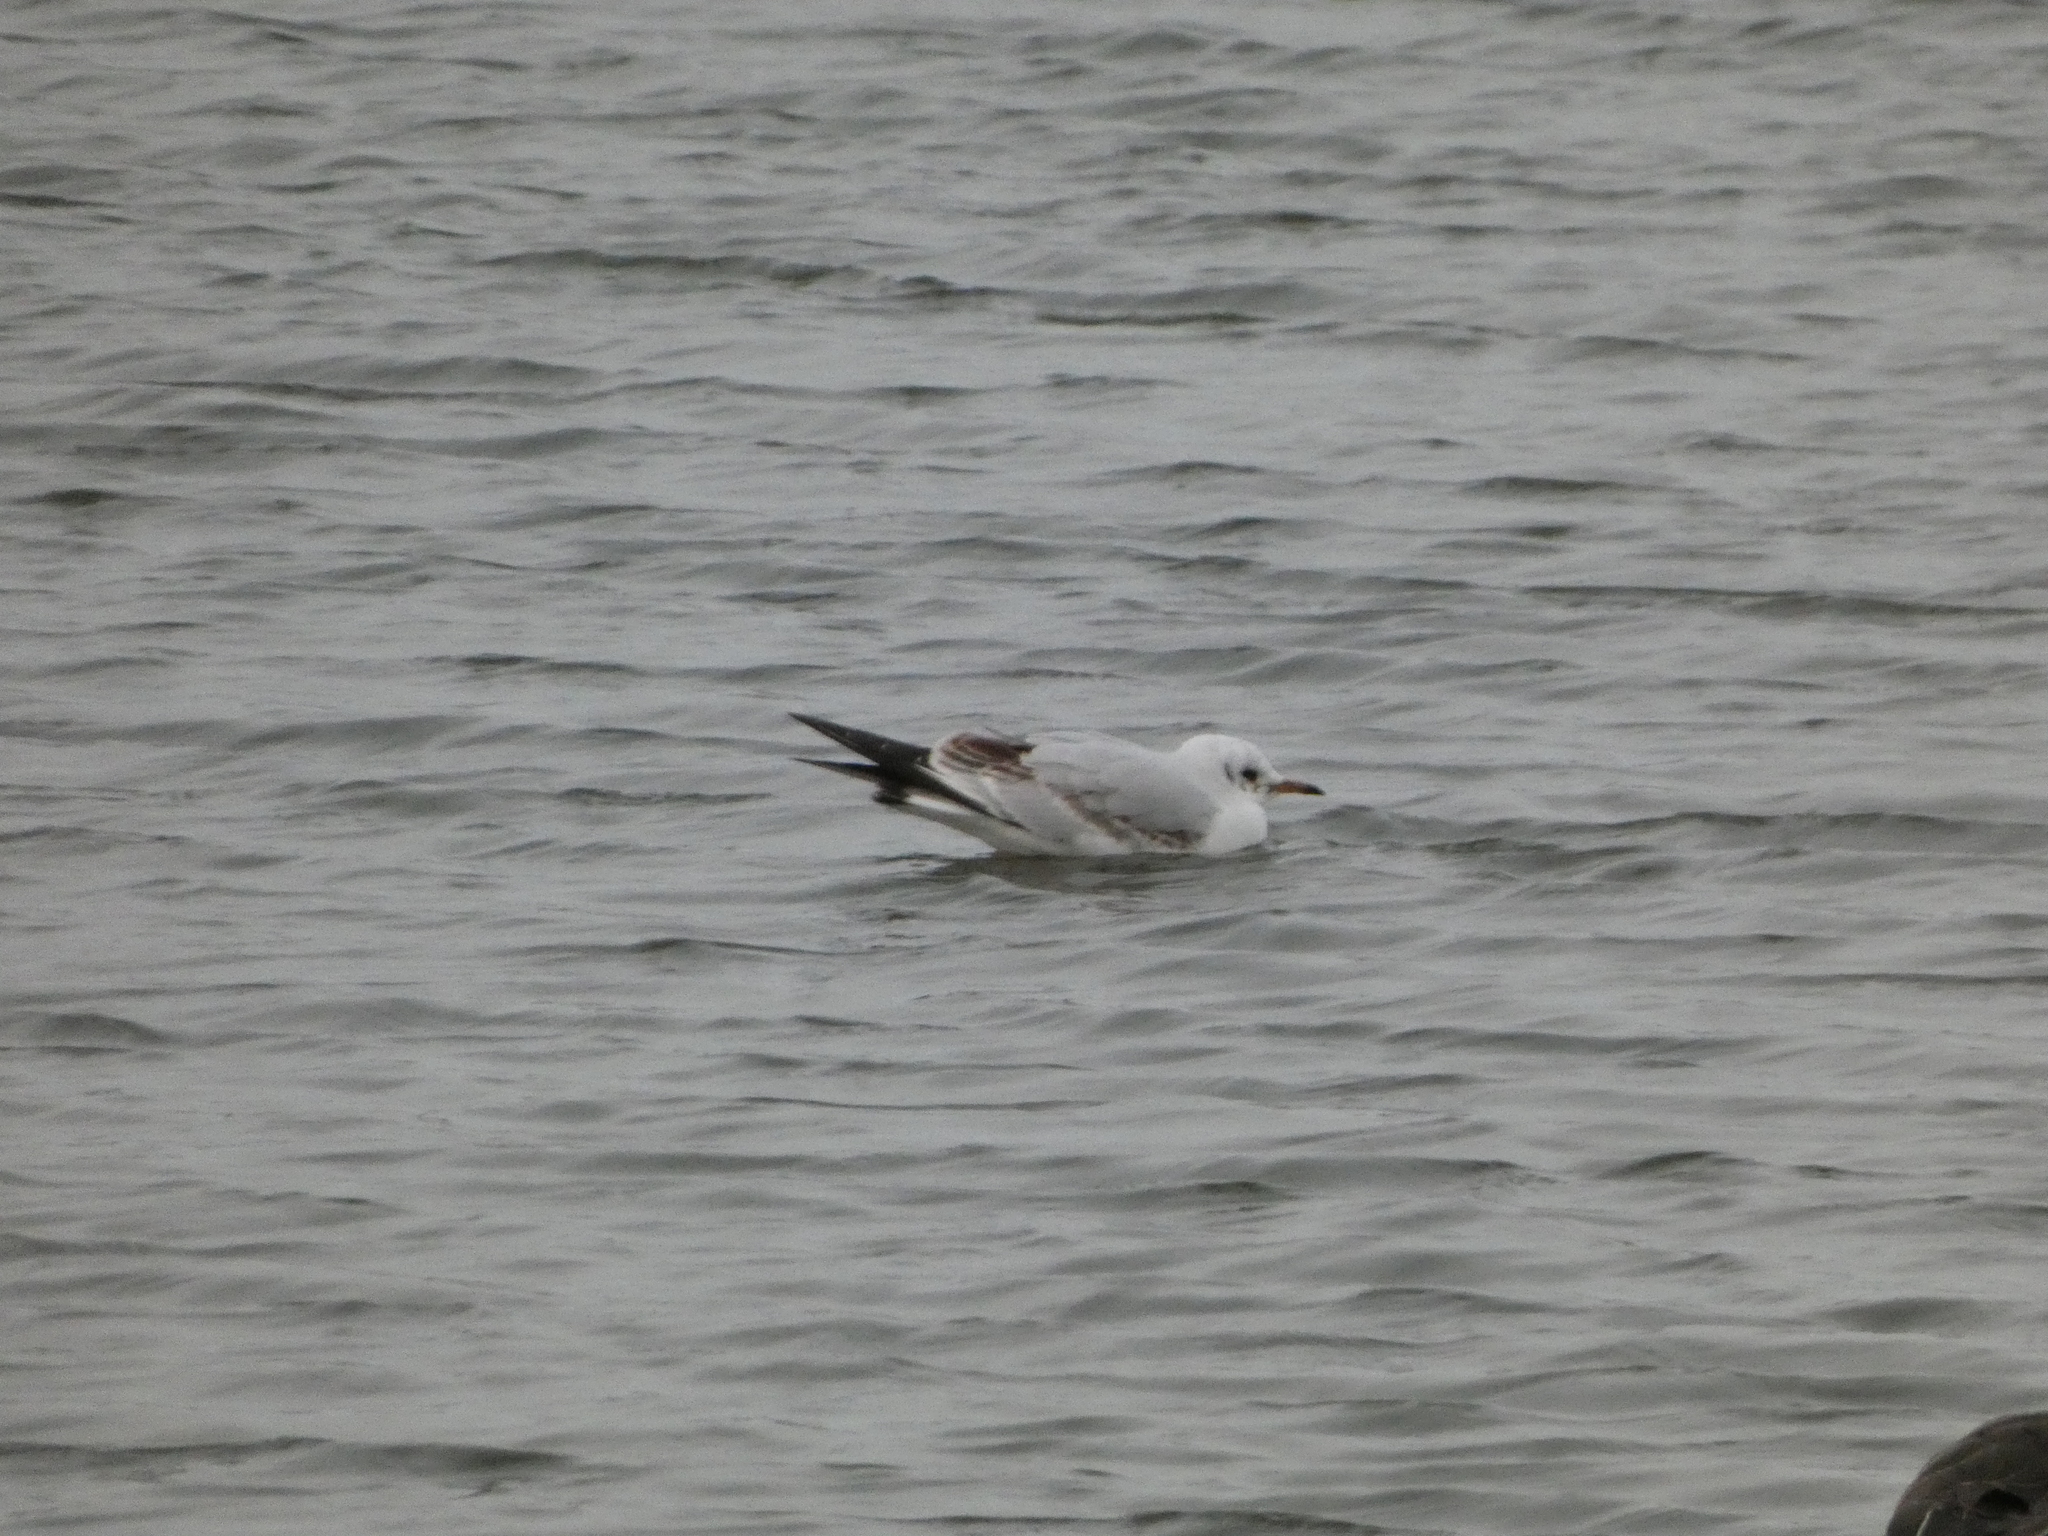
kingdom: Animalia
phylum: Chordata
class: Aves
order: Charadriiformes
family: Laridae
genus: Chroicocephalus
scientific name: Chroicocephalus ridibundus
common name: Black-headed gull
